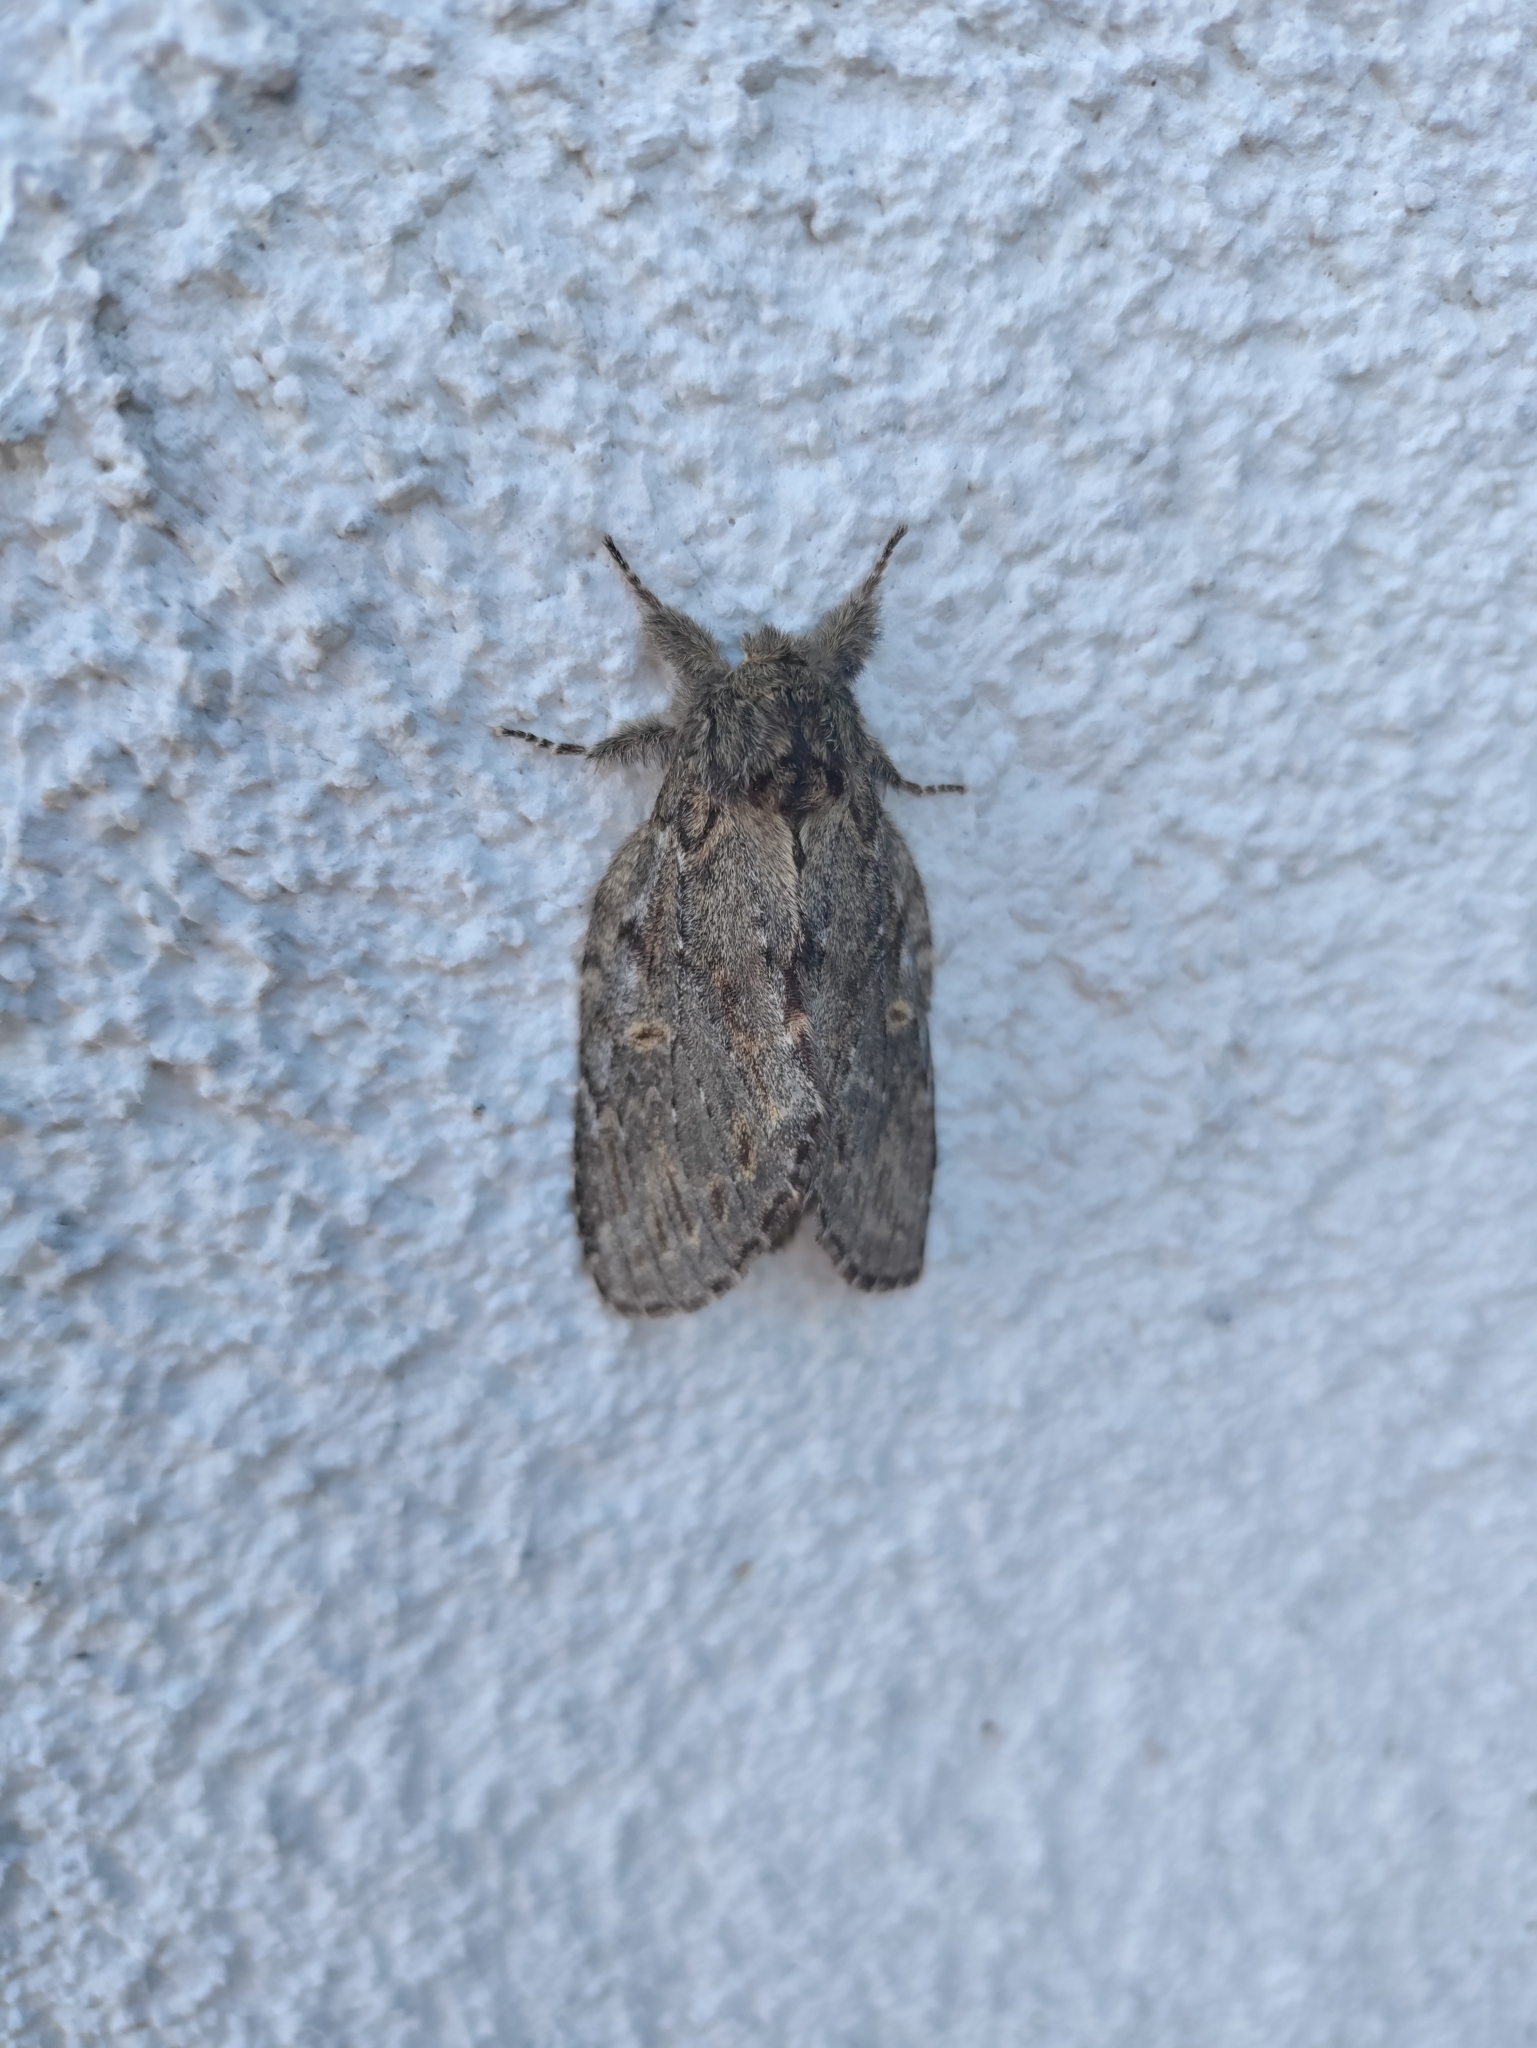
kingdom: Animalia
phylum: Arthropoda
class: Insecta
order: Lepidoptera
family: Notodontidae
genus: Peridea
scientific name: Peridea anceps
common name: Great prominent
